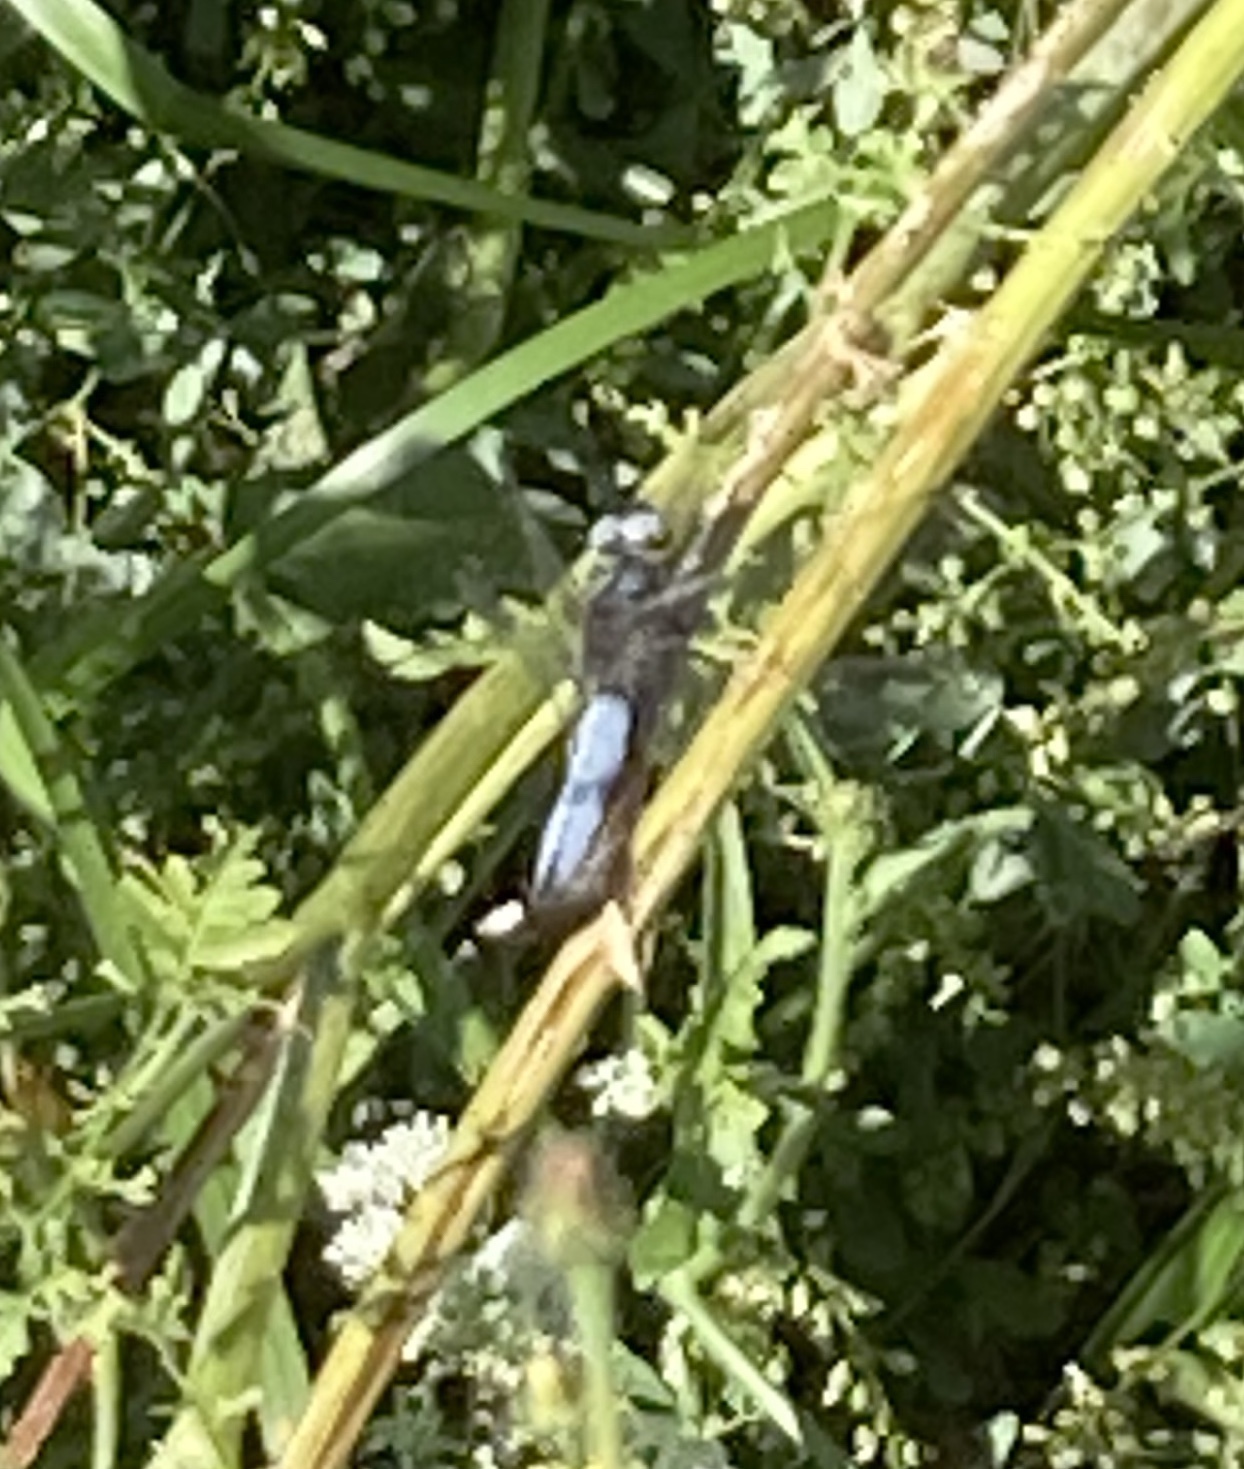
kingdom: Animalia
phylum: Arthropoda
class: Insecta
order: Odonata
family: Libellulidae
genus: Libellula
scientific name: Libellula fulva
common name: Blue chaser
